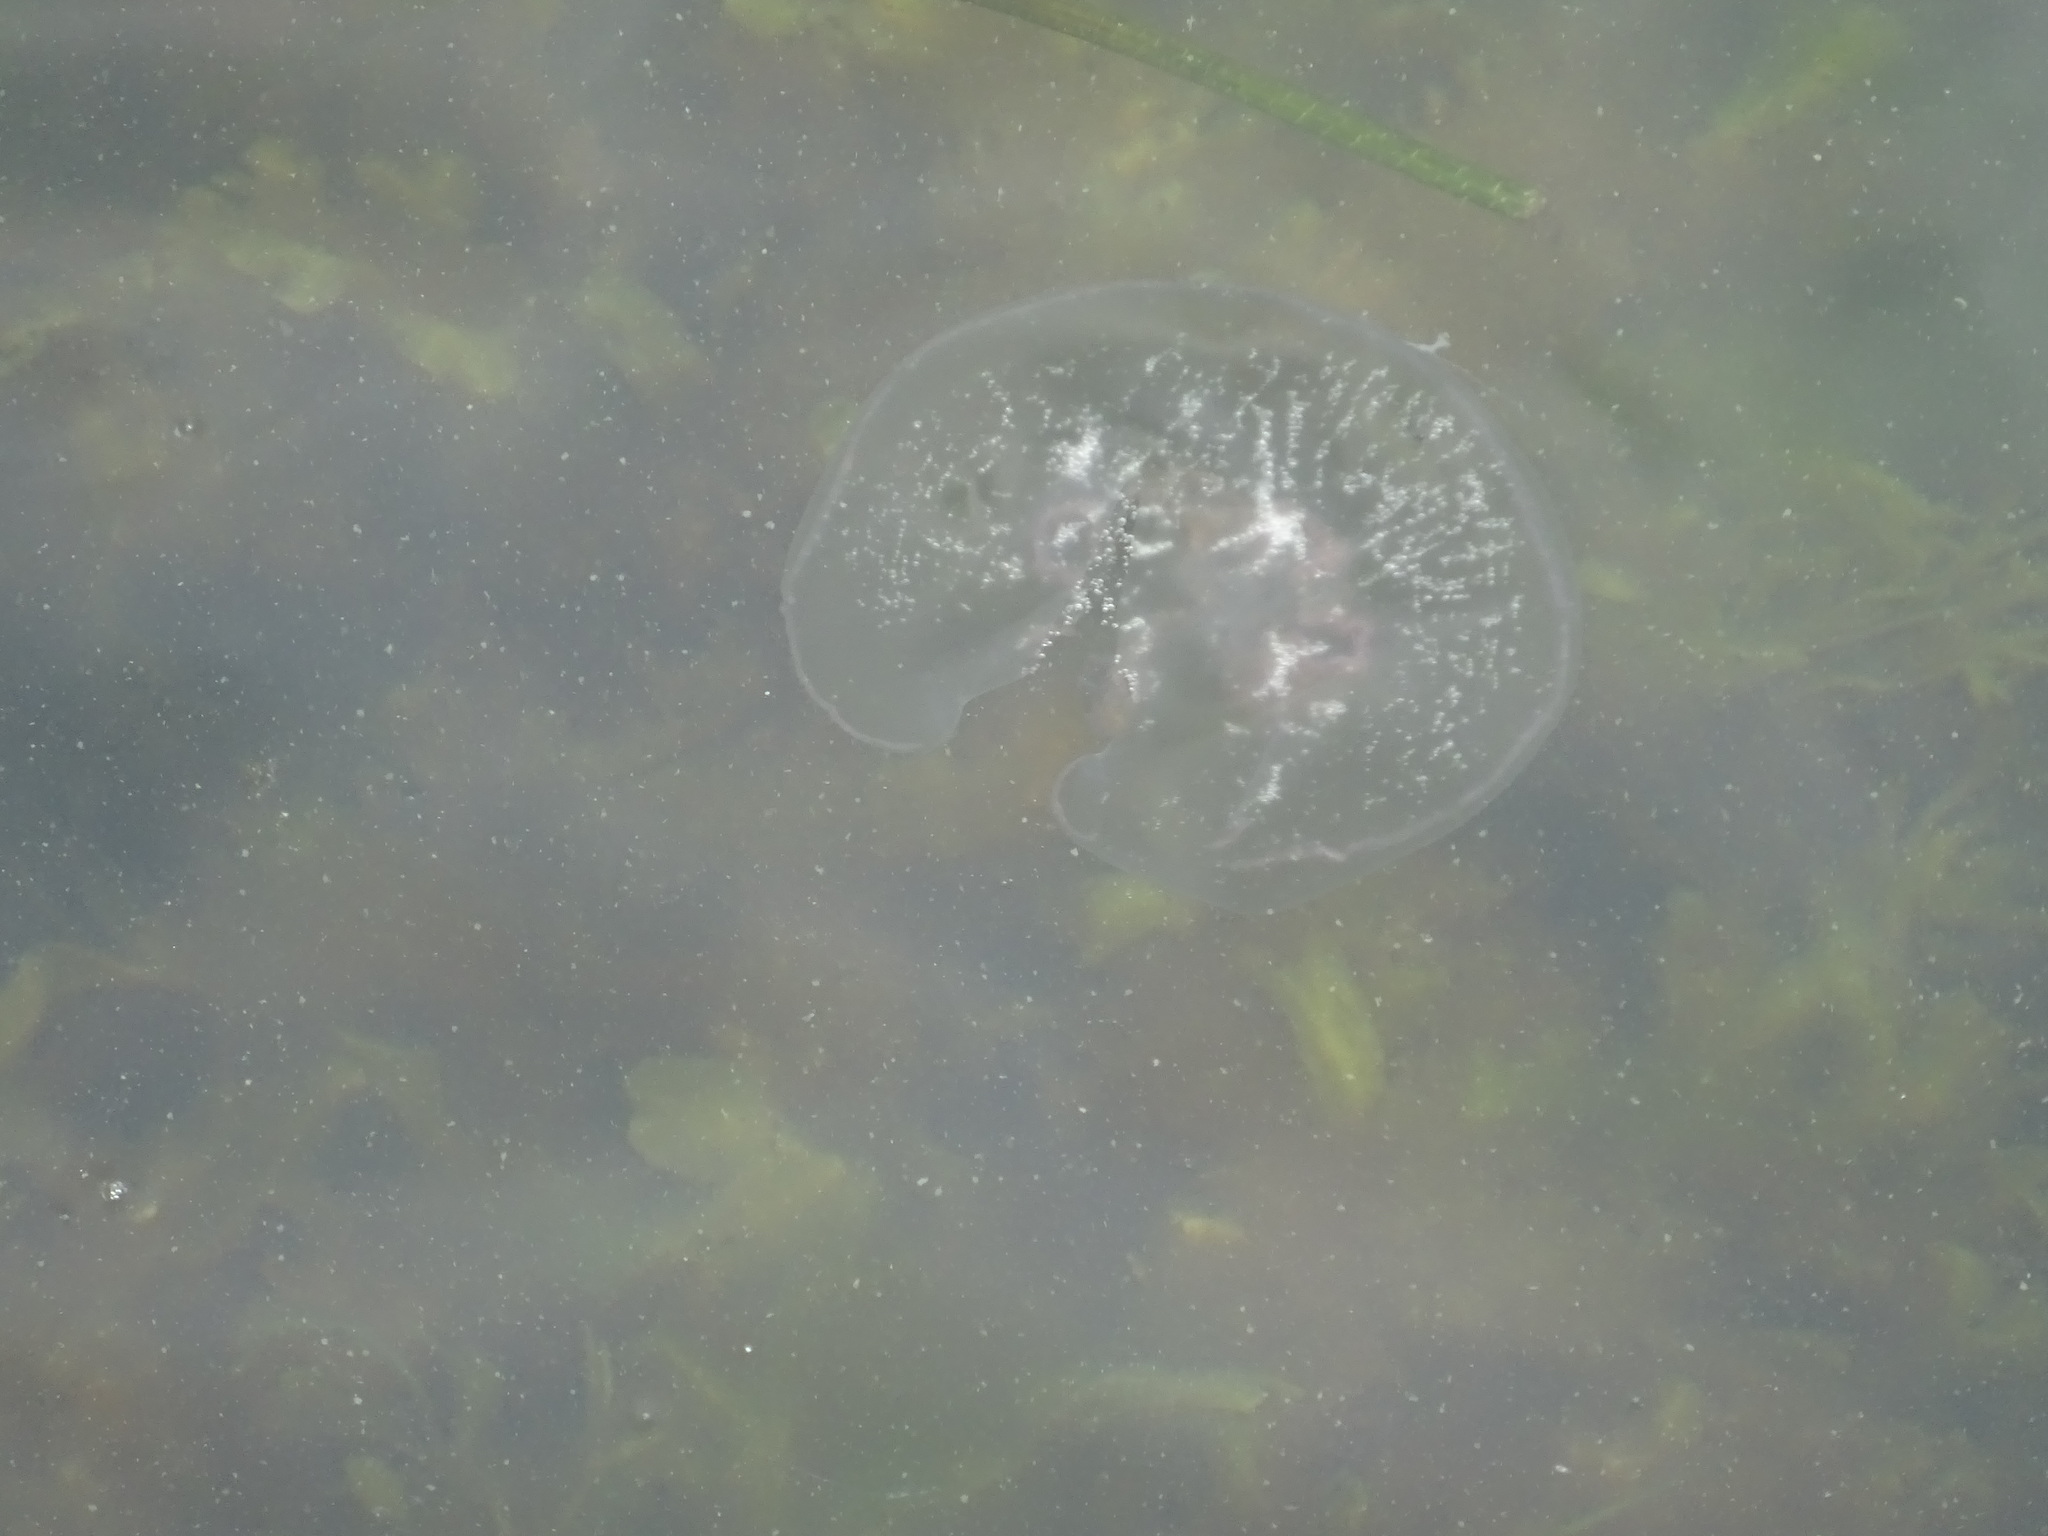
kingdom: Animalia
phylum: Cnidaria
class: Scyphozoa
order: Semaeostomeae
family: Ulmaridae
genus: Aurelia
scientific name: Aurelia aurita
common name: Moon jellyfish
